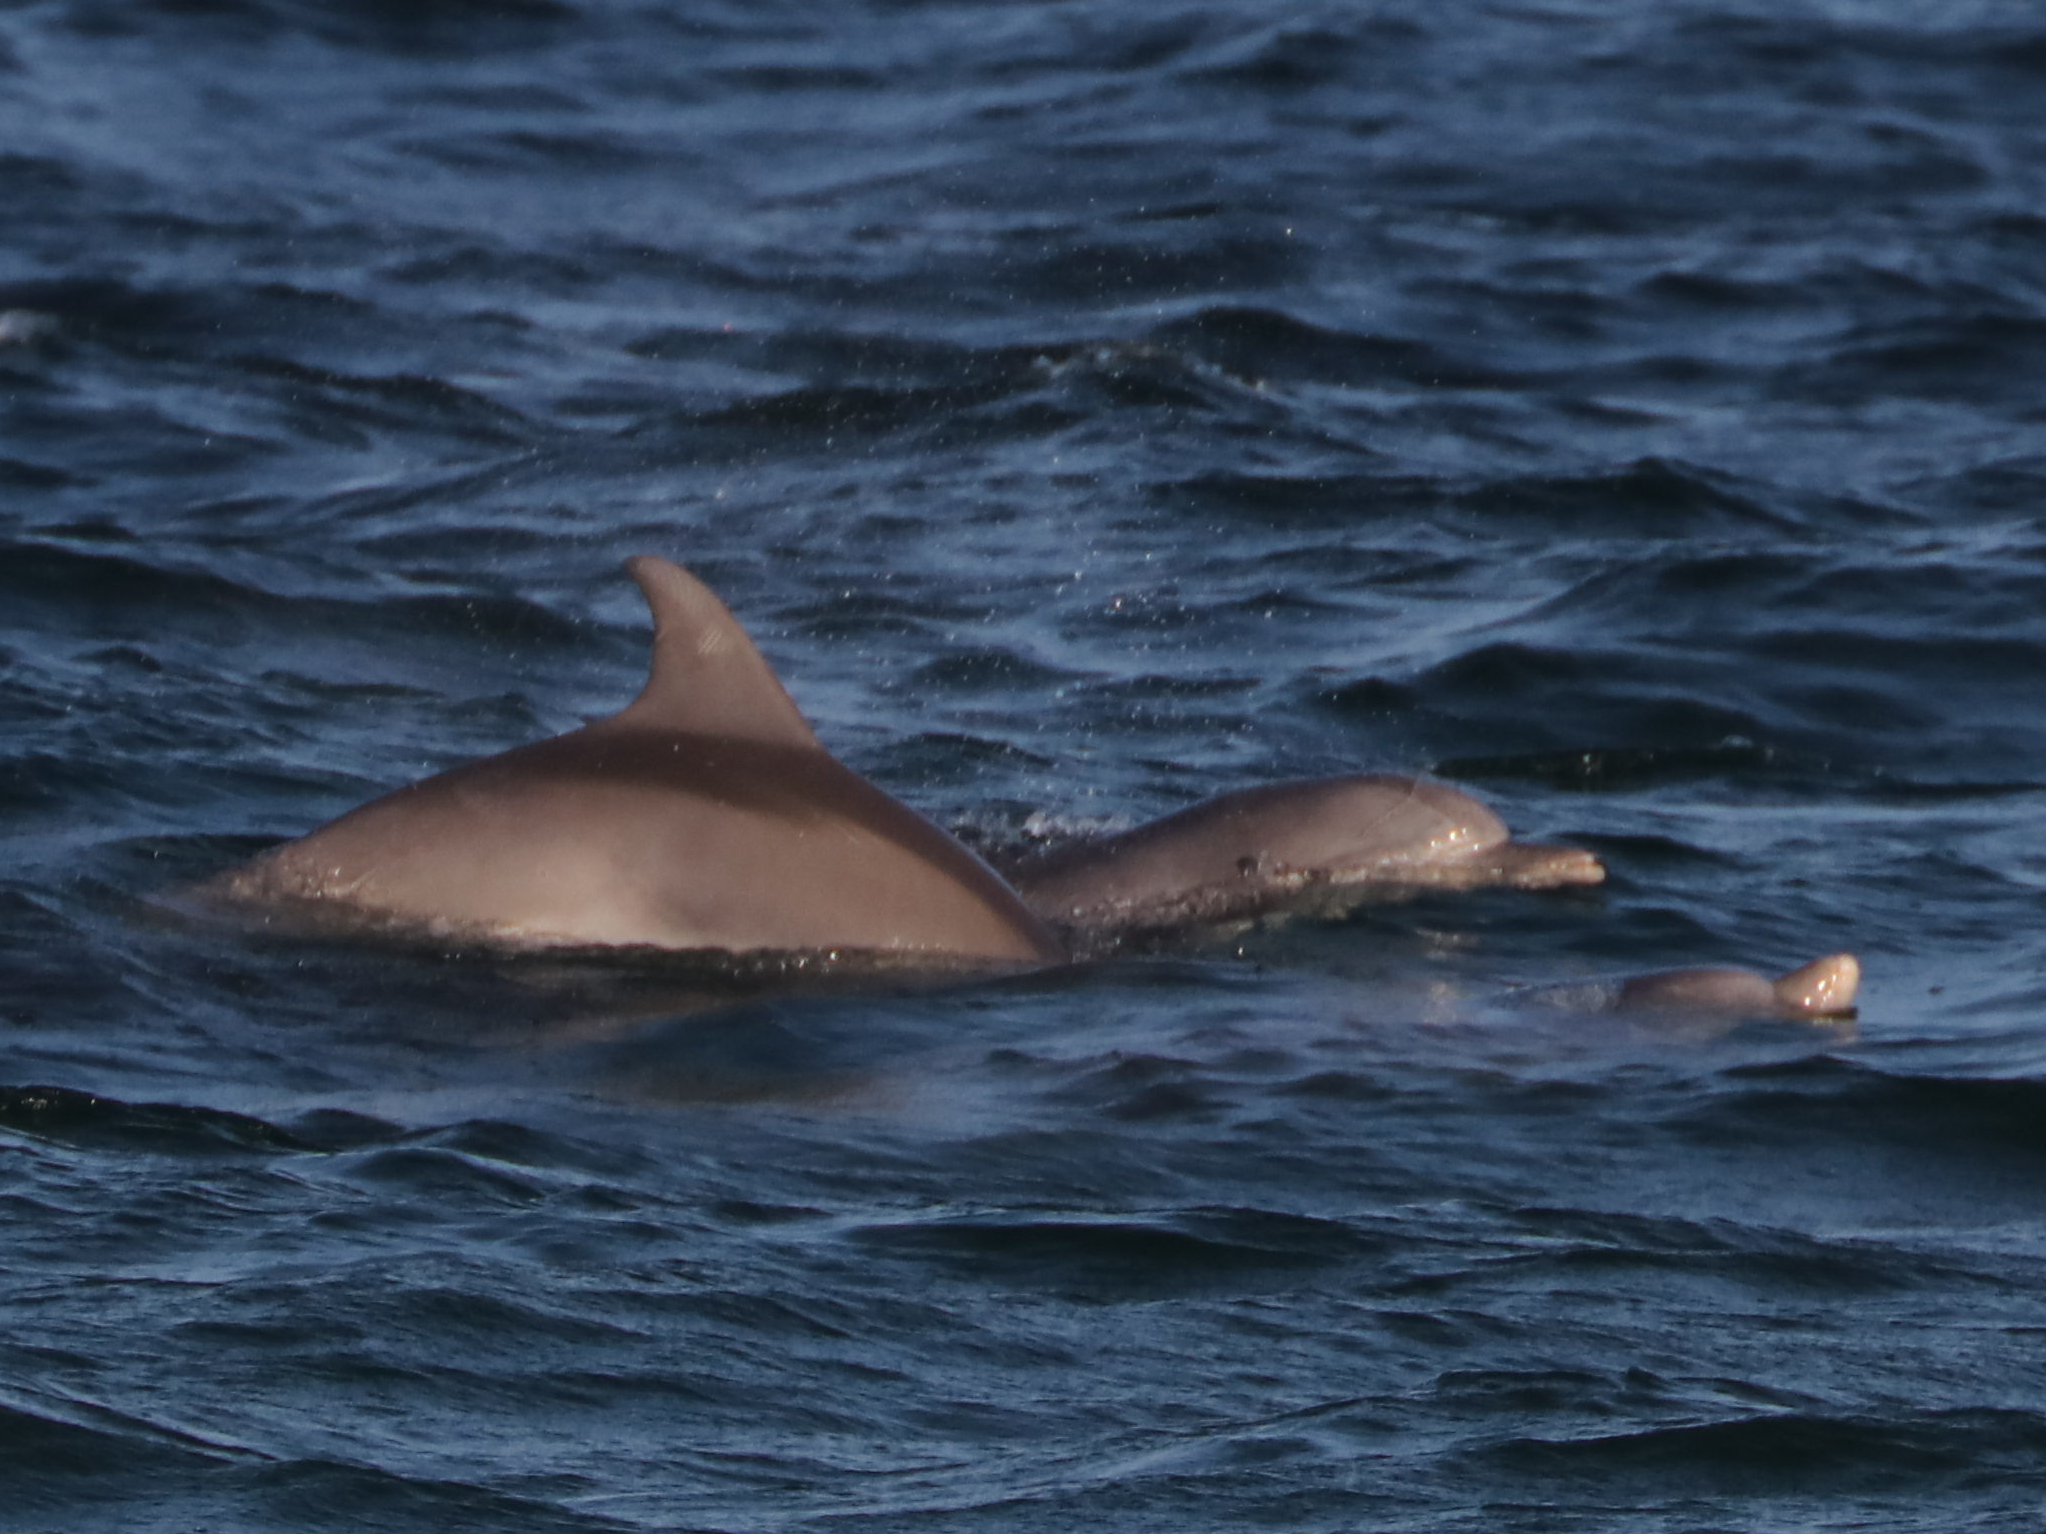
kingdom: Animalia
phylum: Chordata
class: Mammalia
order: Cetacea
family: Delphinidae
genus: Tursiops
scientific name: Tursiops truncatus
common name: Bottlenose dolphin
